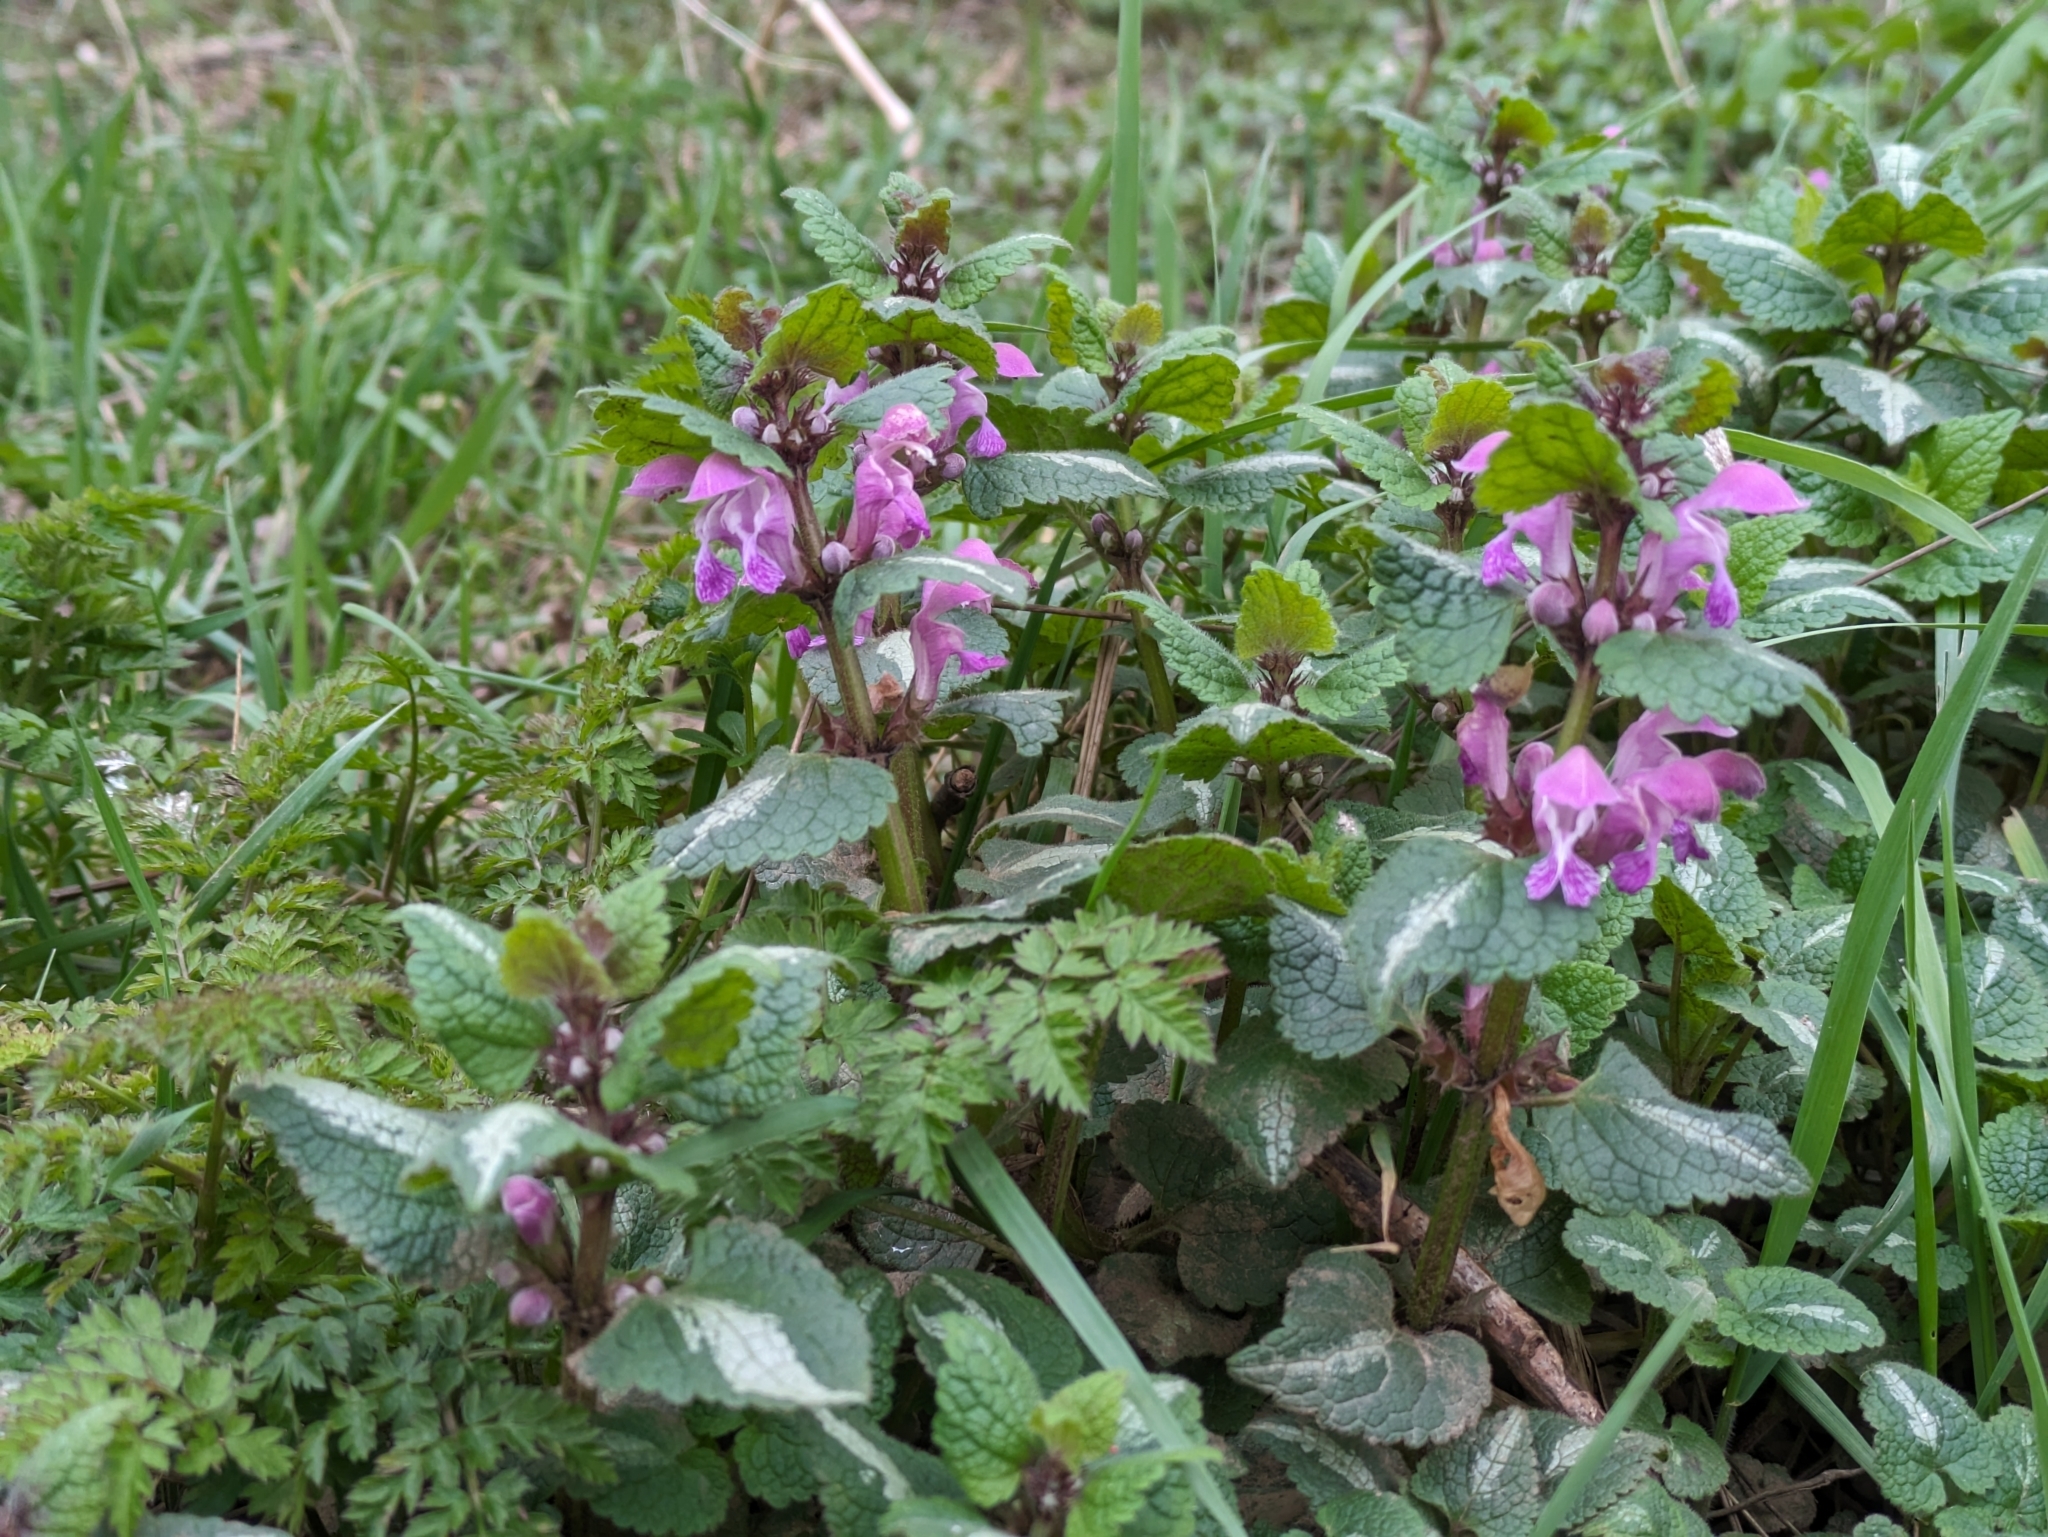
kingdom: Plantae
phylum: Tracheophyta
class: Magnoliopsida
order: Lamiales
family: Lamiaceae
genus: Lamium
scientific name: Lamium maculatum
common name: Spotted dead-nettle
